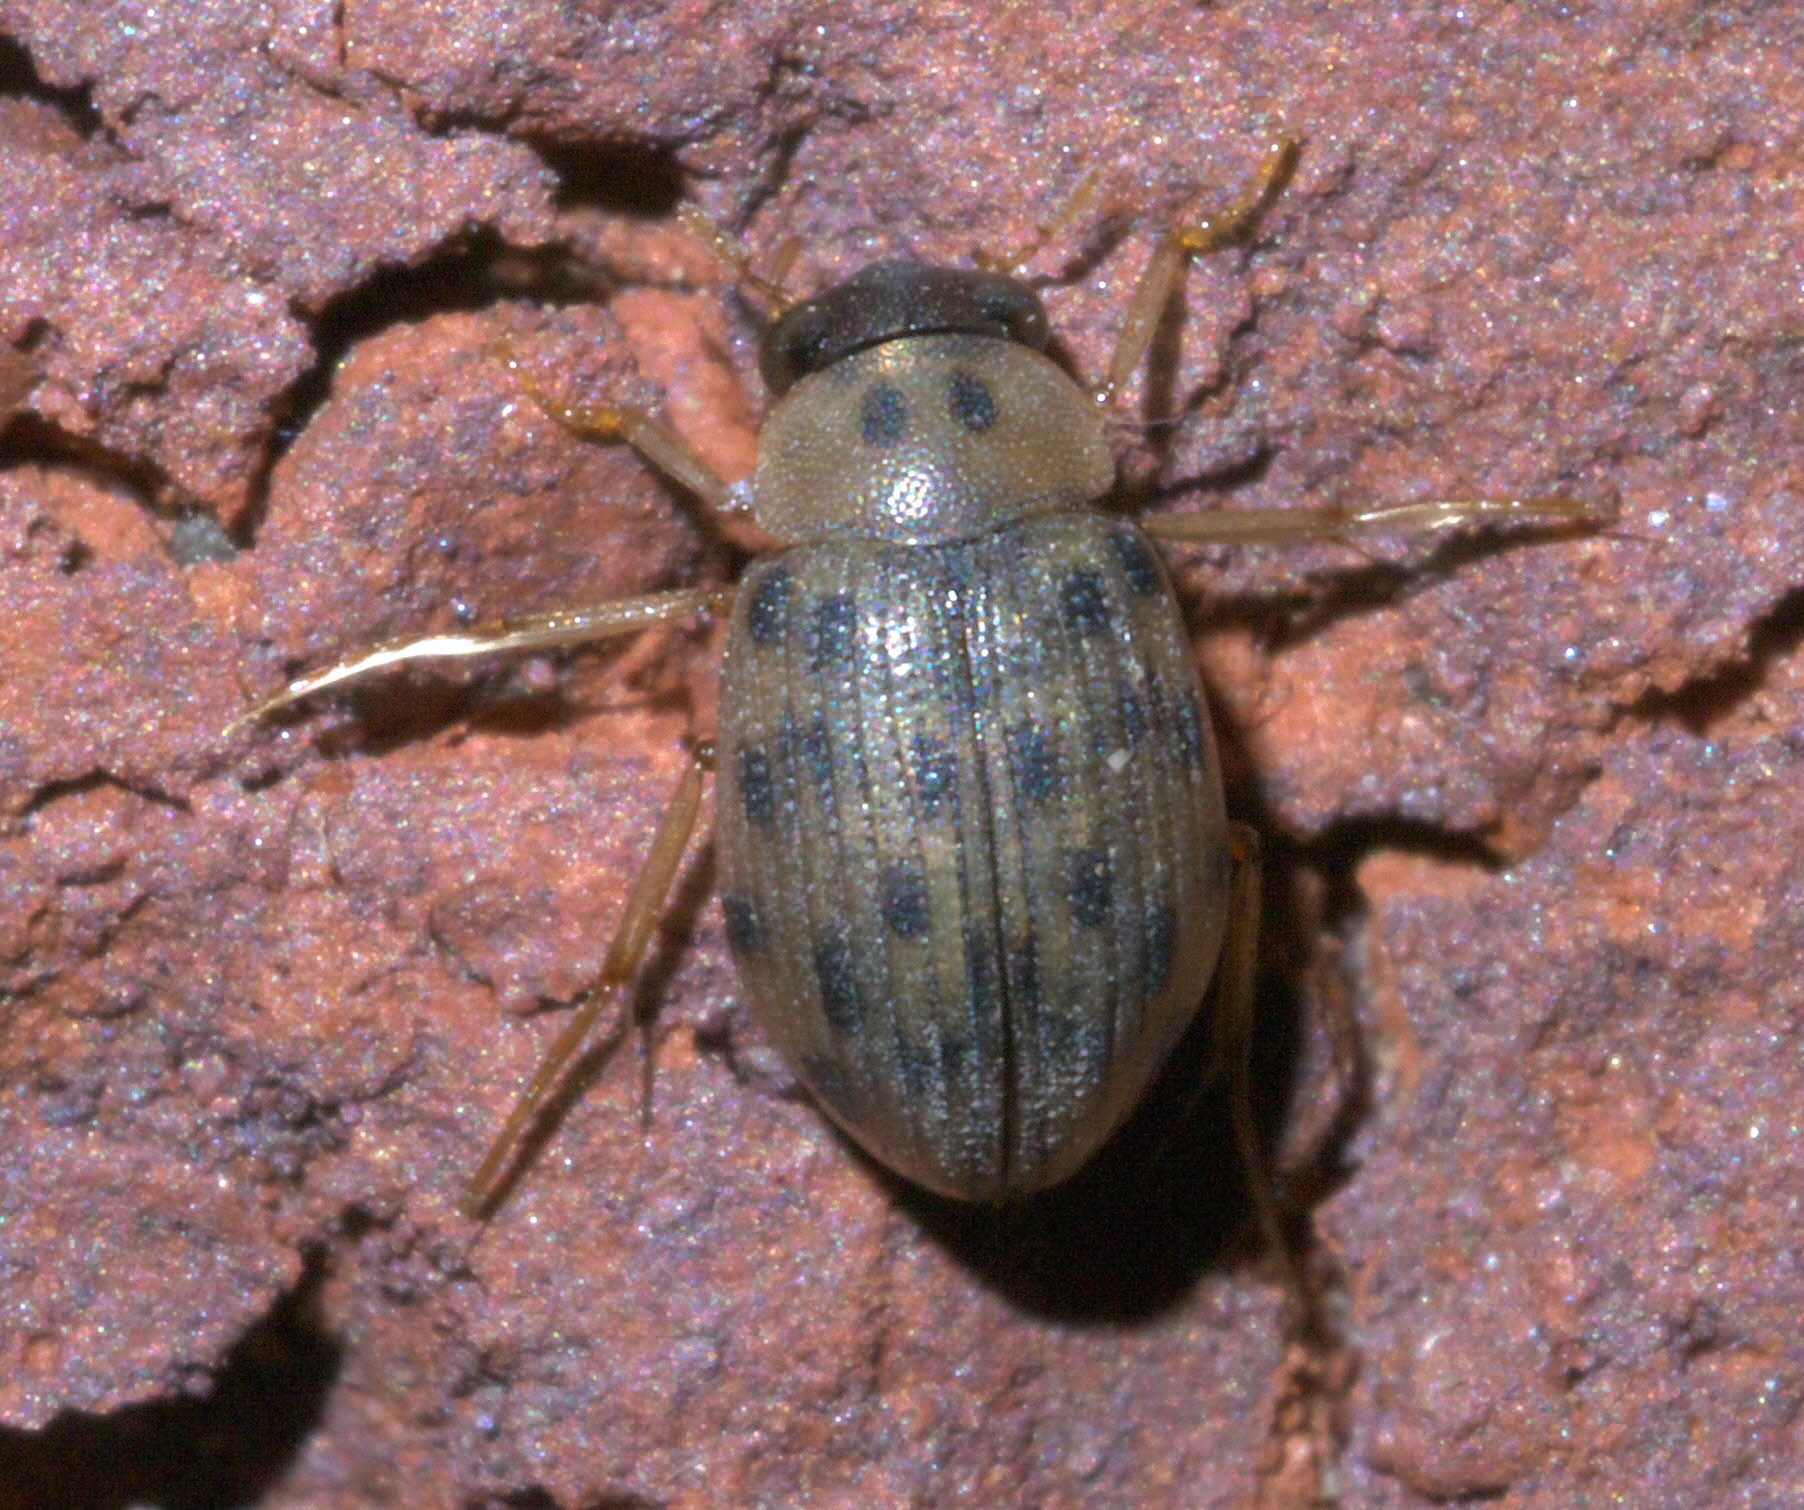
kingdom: Animalia
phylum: Arthropoda
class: Insecta
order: Coleoptera
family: Hydrophilidae
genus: Berosus
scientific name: Berosus pantherinus
